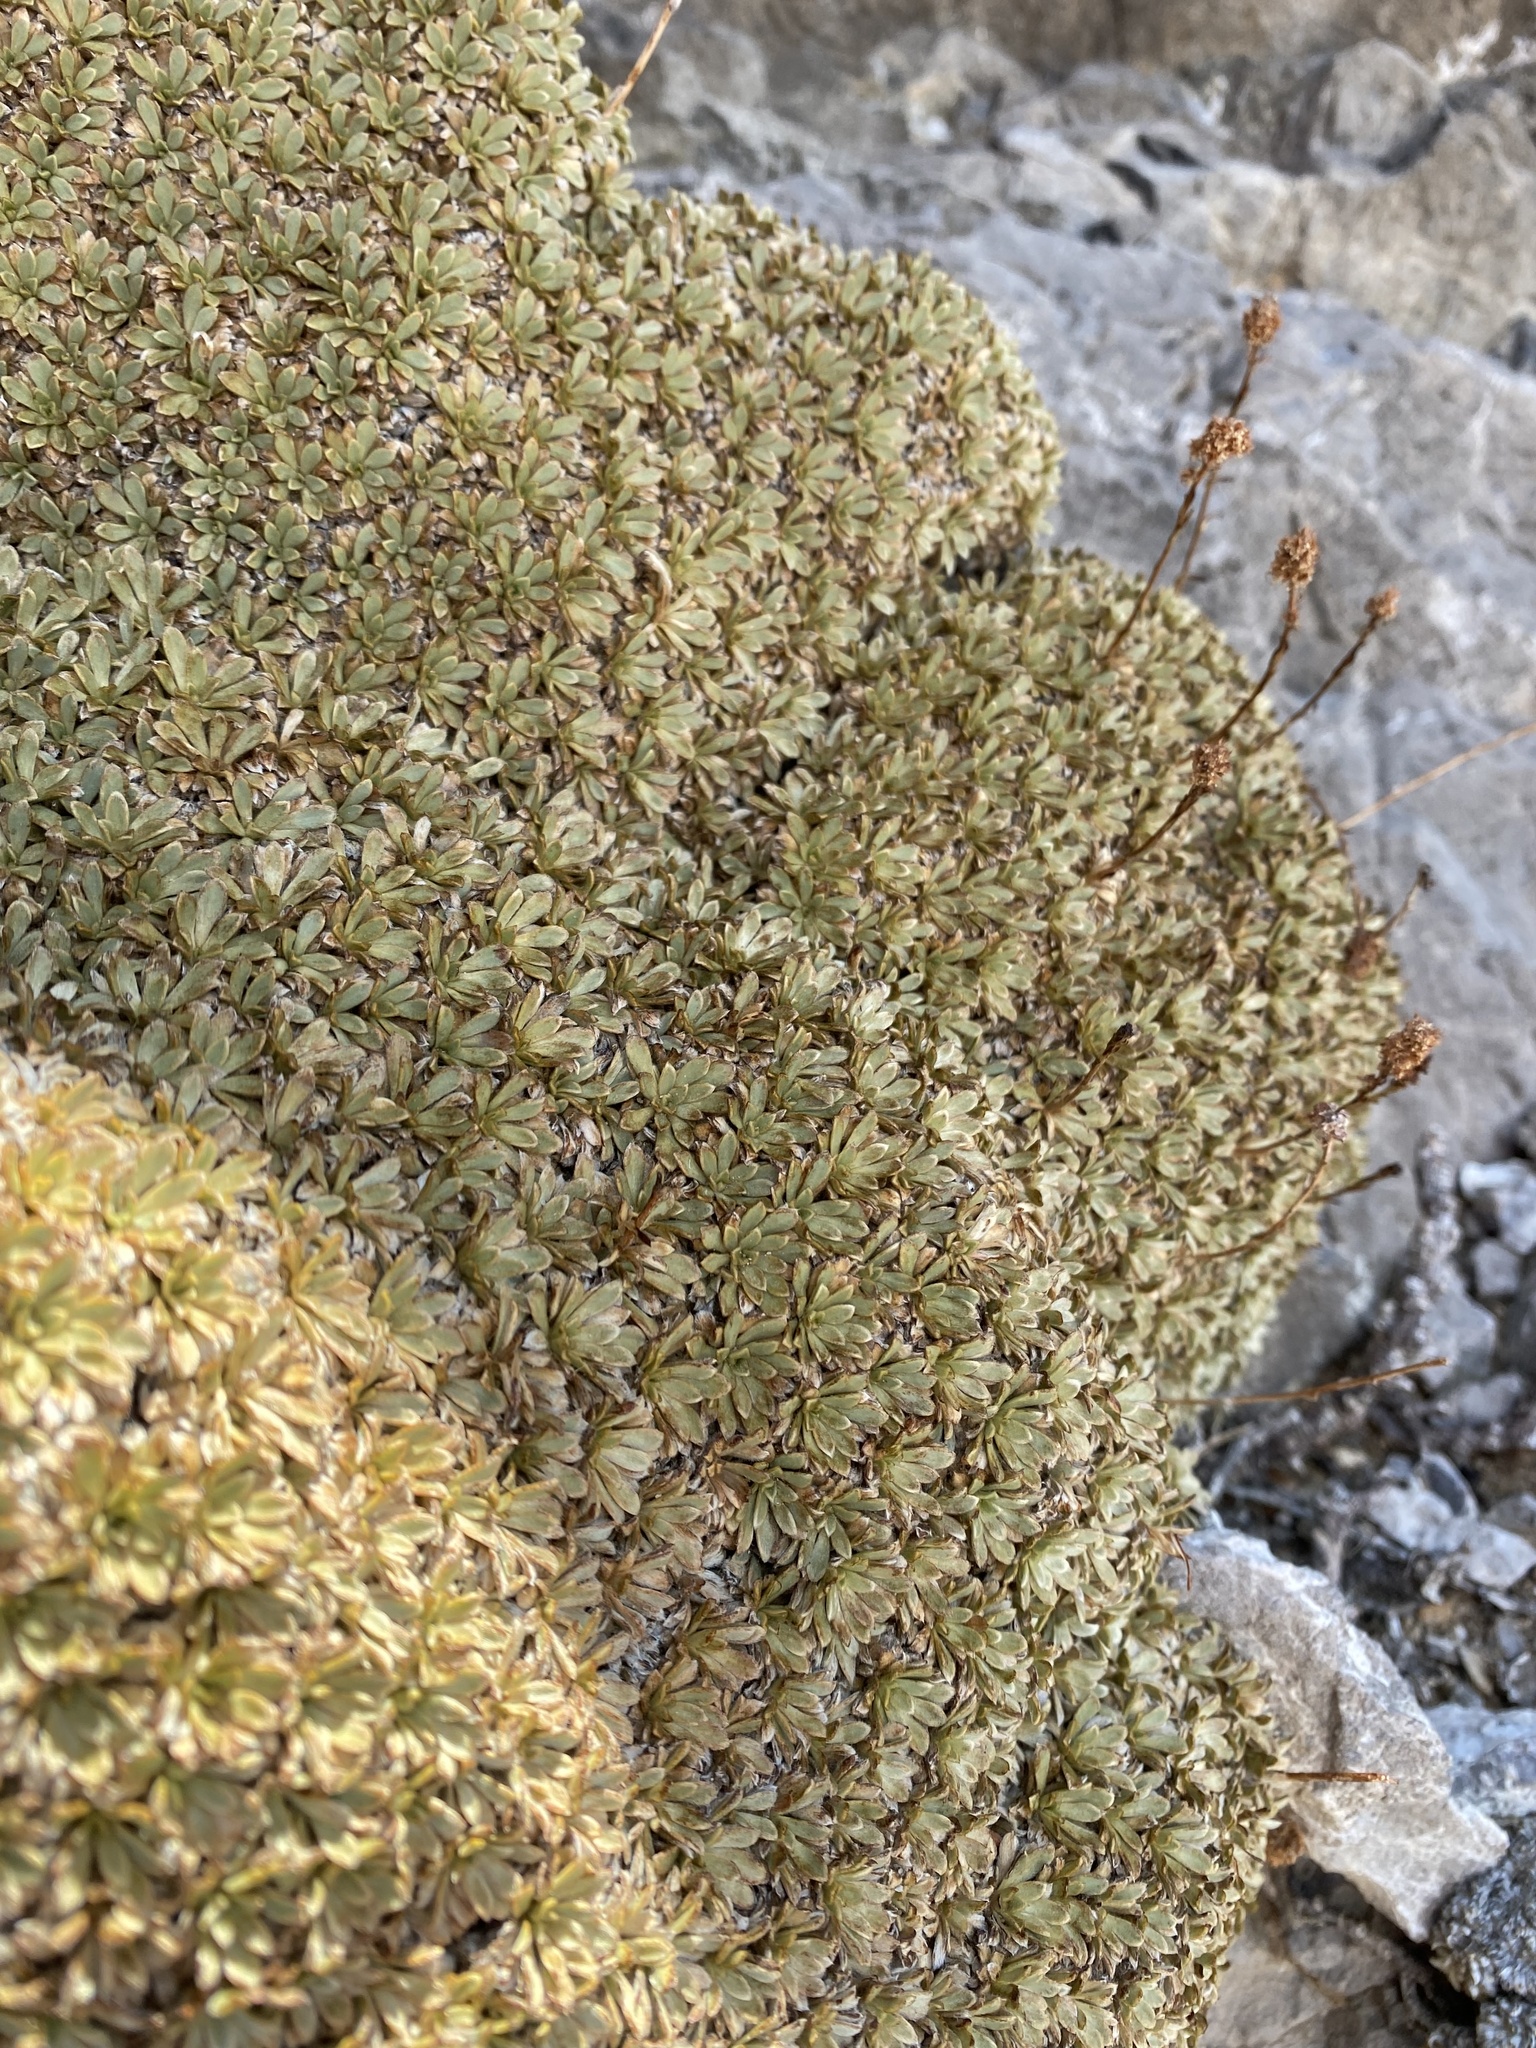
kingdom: Plantae
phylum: Tracheophyta
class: Magnoliopsida
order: Rosales
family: Rosaceae
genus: Petrophytum
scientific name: Petrophytum caespitosum
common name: Mat rockspirea
